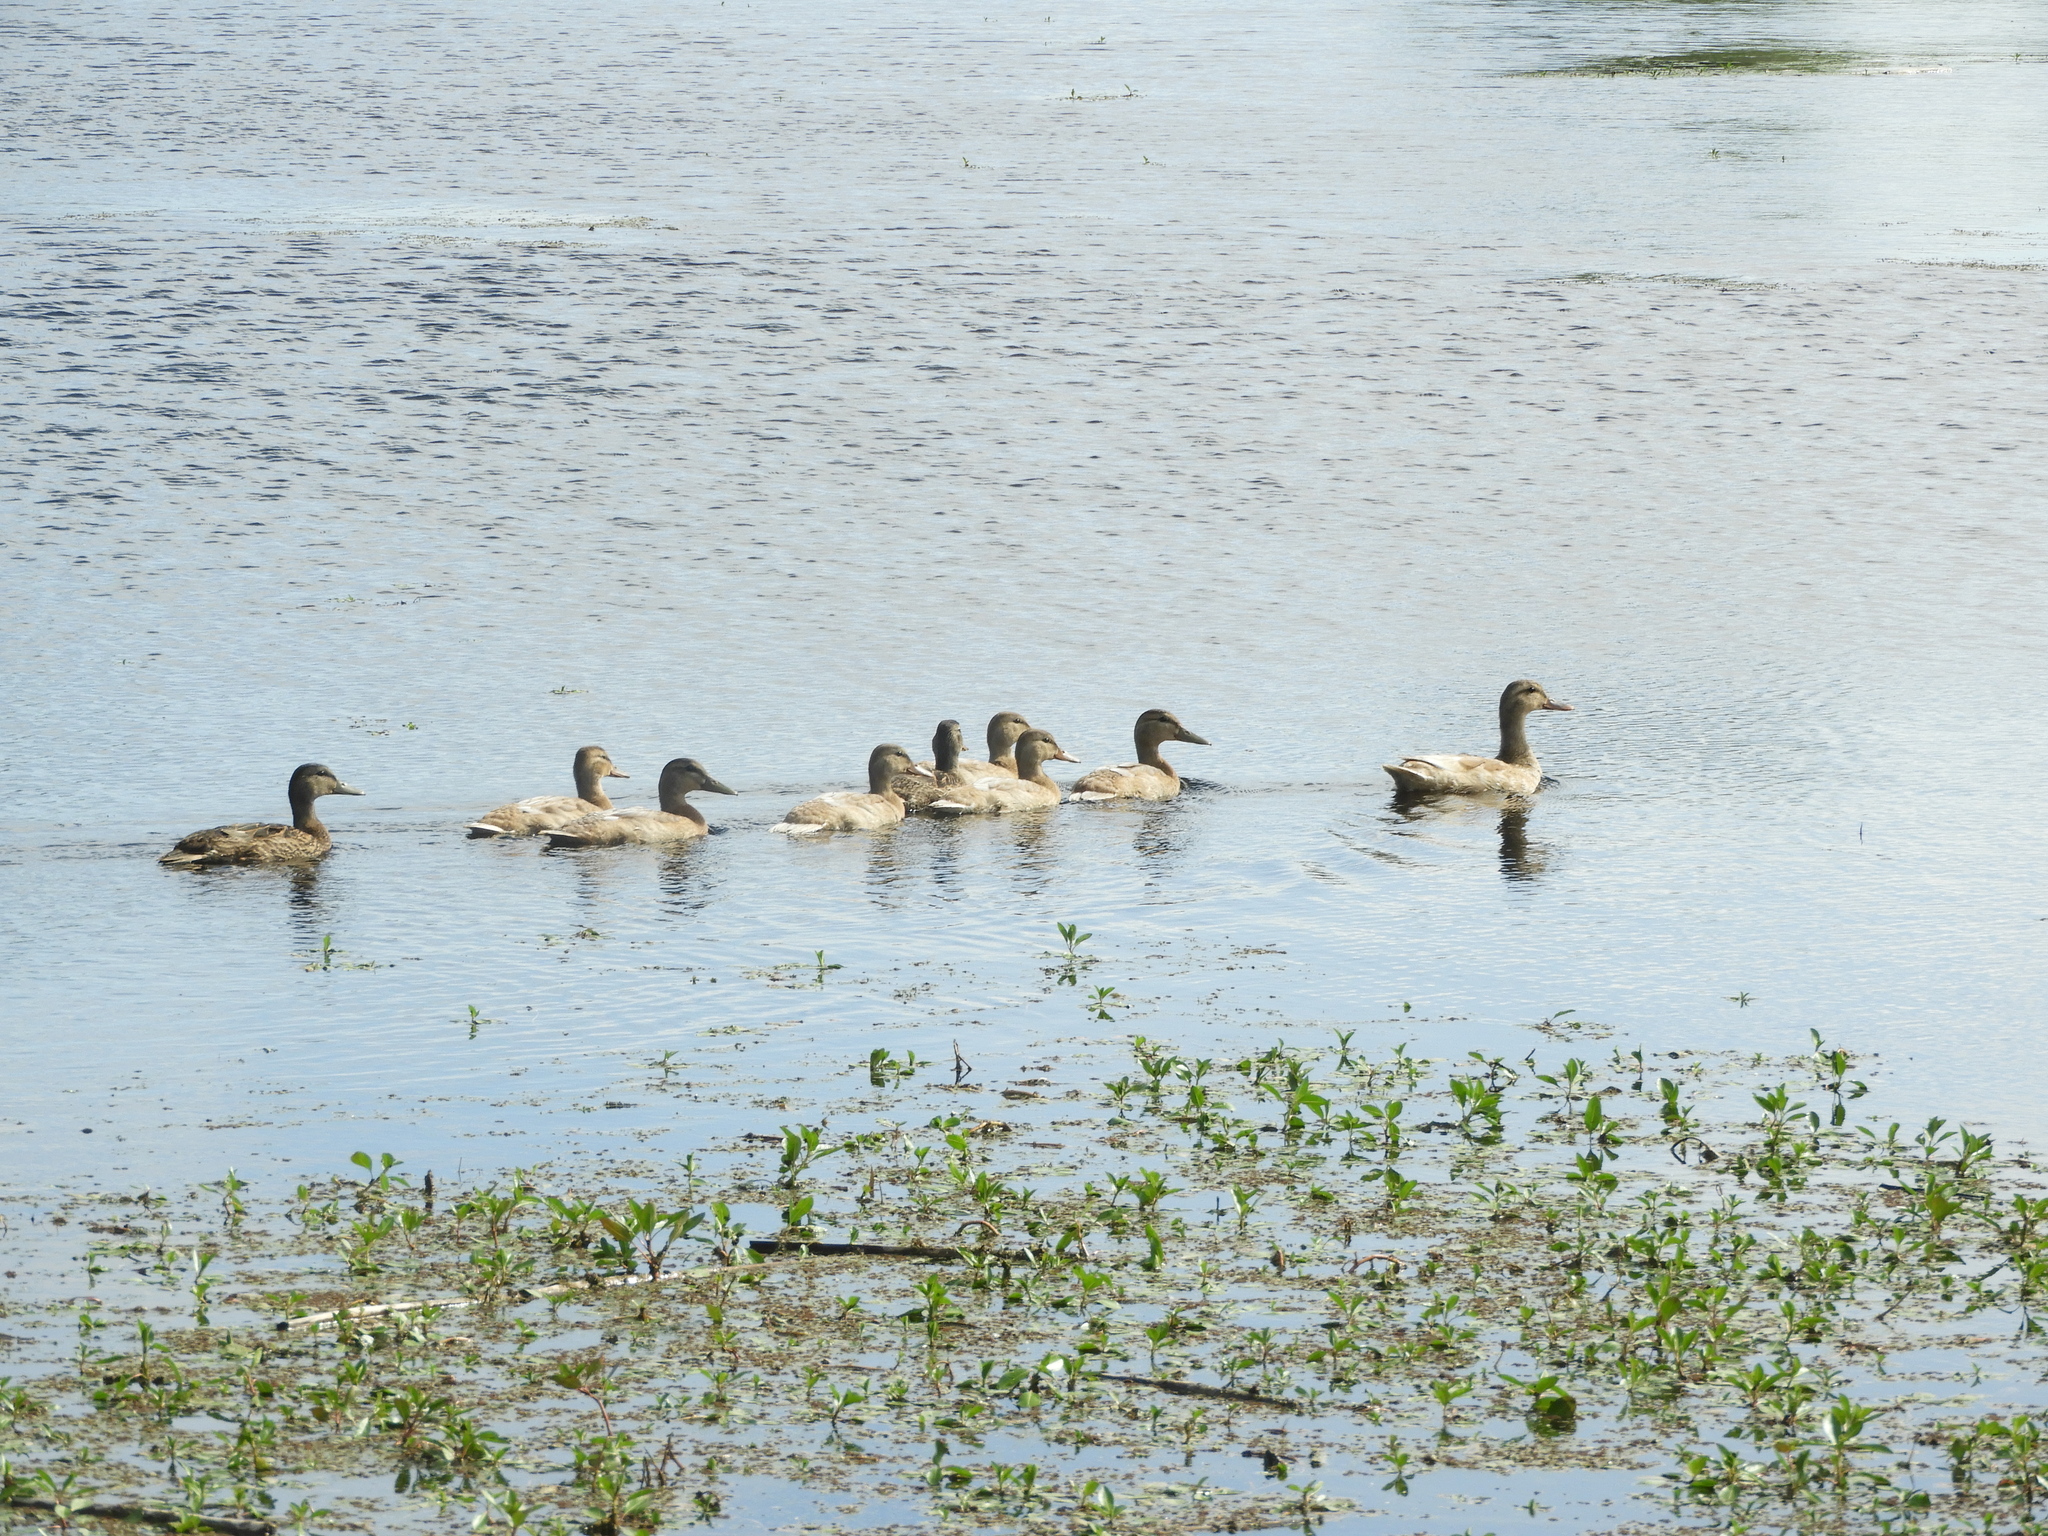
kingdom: Animalia
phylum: Chordata
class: Aves
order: Anseriformes
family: Anatidae
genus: Anas
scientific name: Anas platyrhynchos
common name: Mallard
